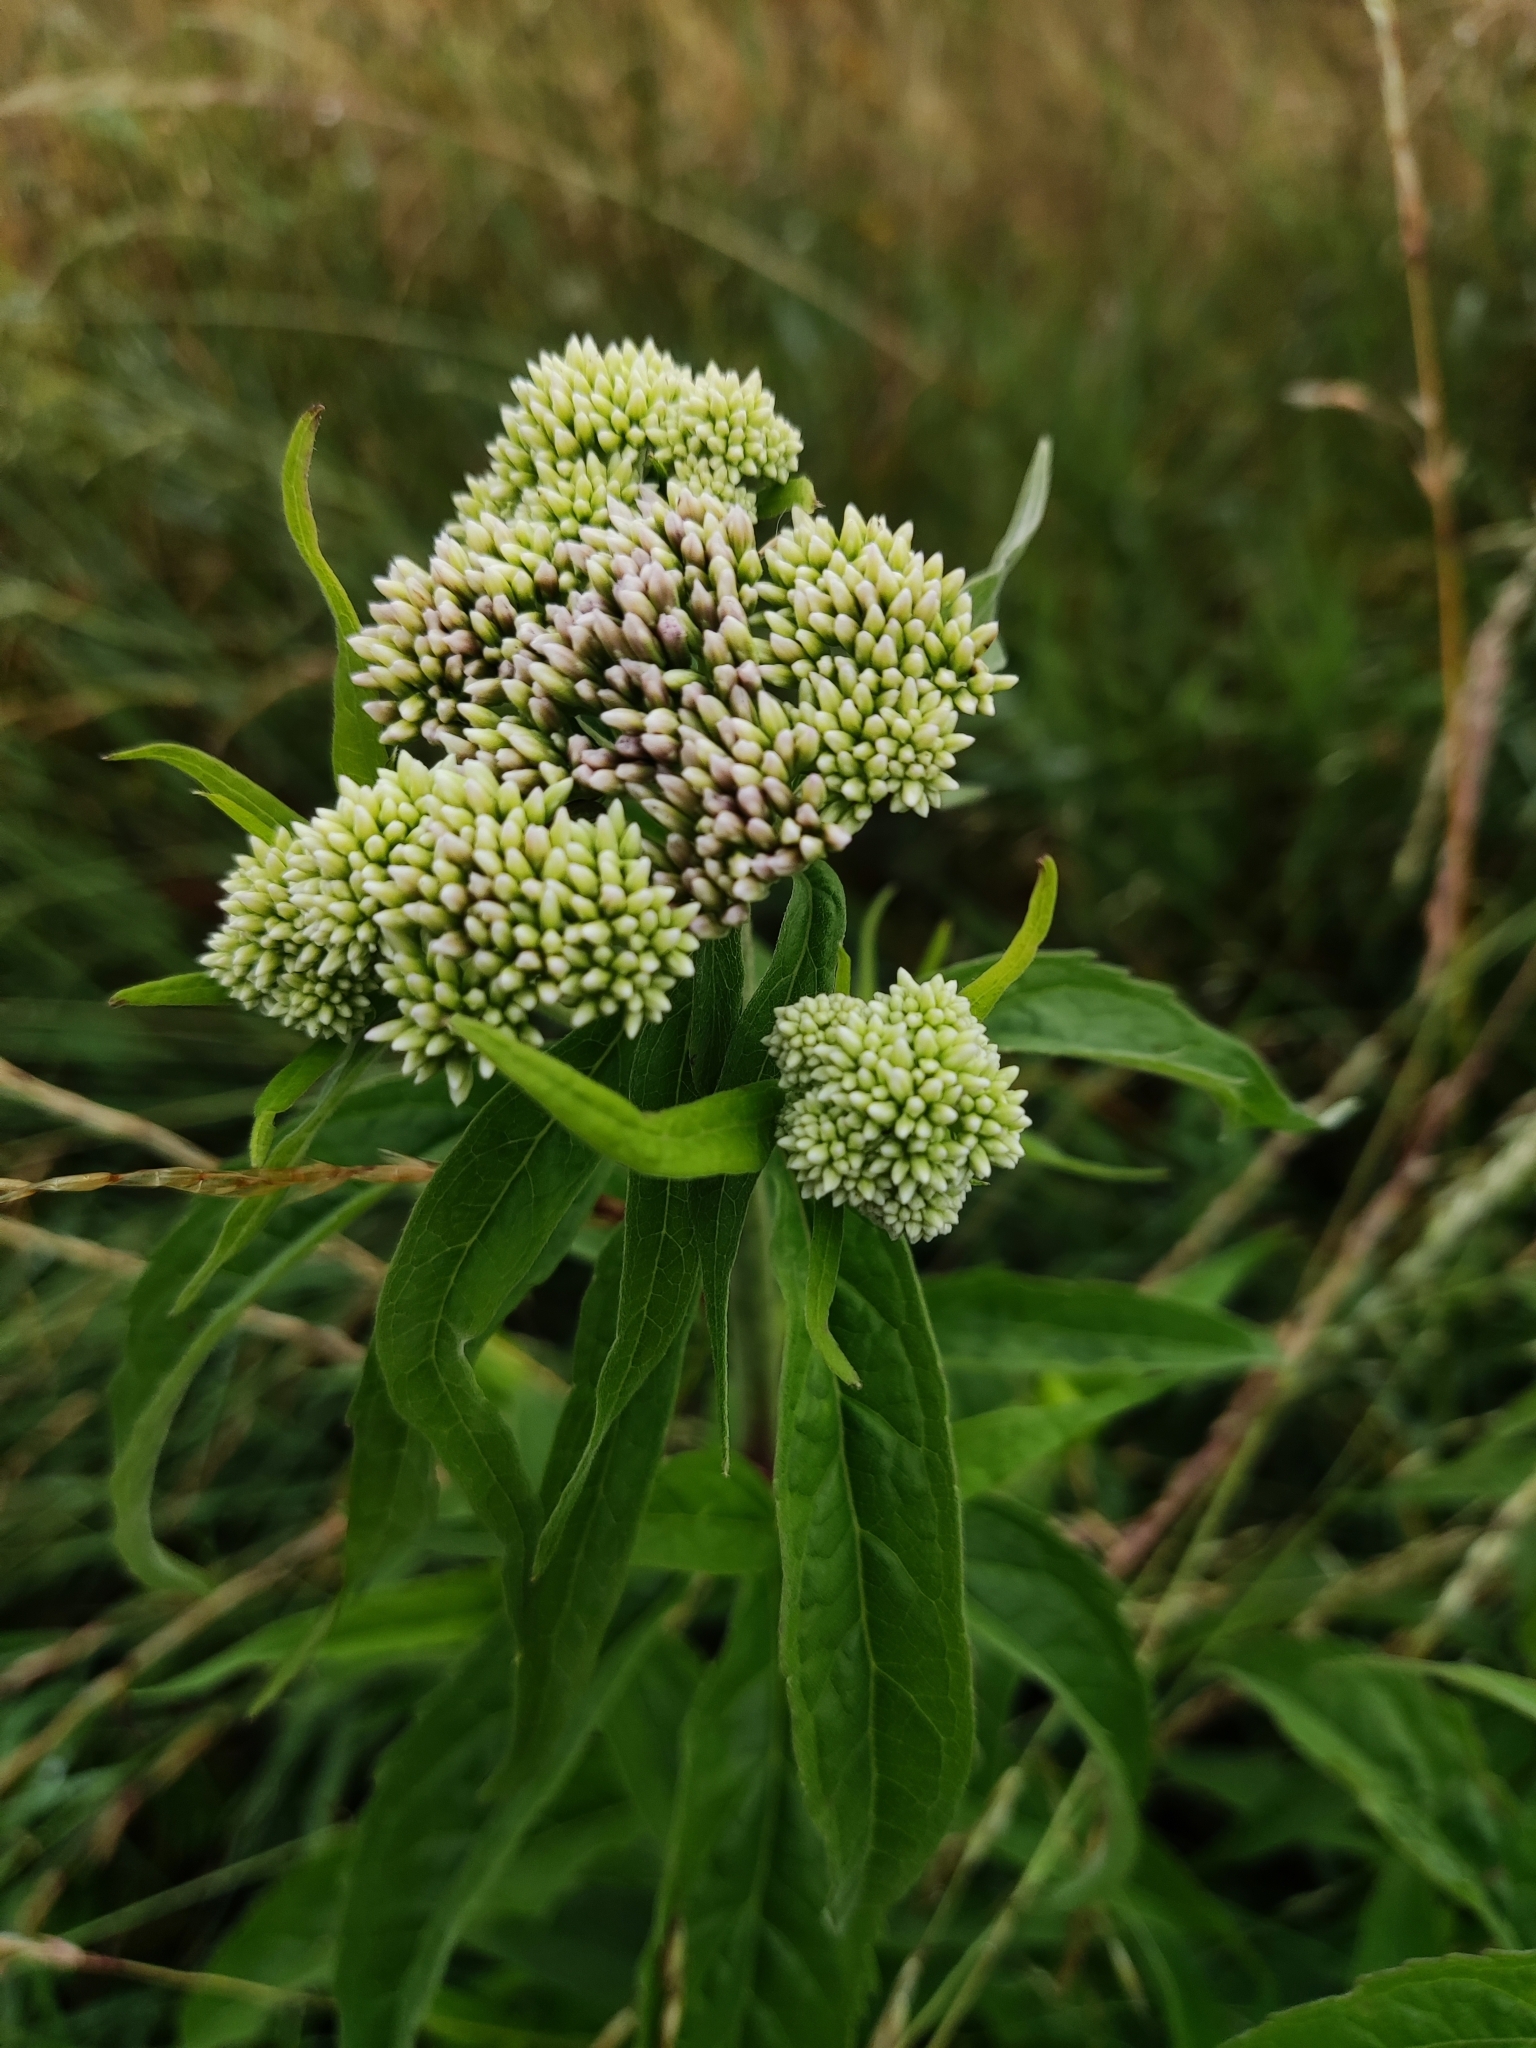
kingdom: Plantae
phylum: Tracheophyta
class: Magnoliopsida
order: Asterales
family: Asteraceae
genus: Eupatorium
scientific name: Eupatorium cannabinum
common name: Hemp-agrimony
